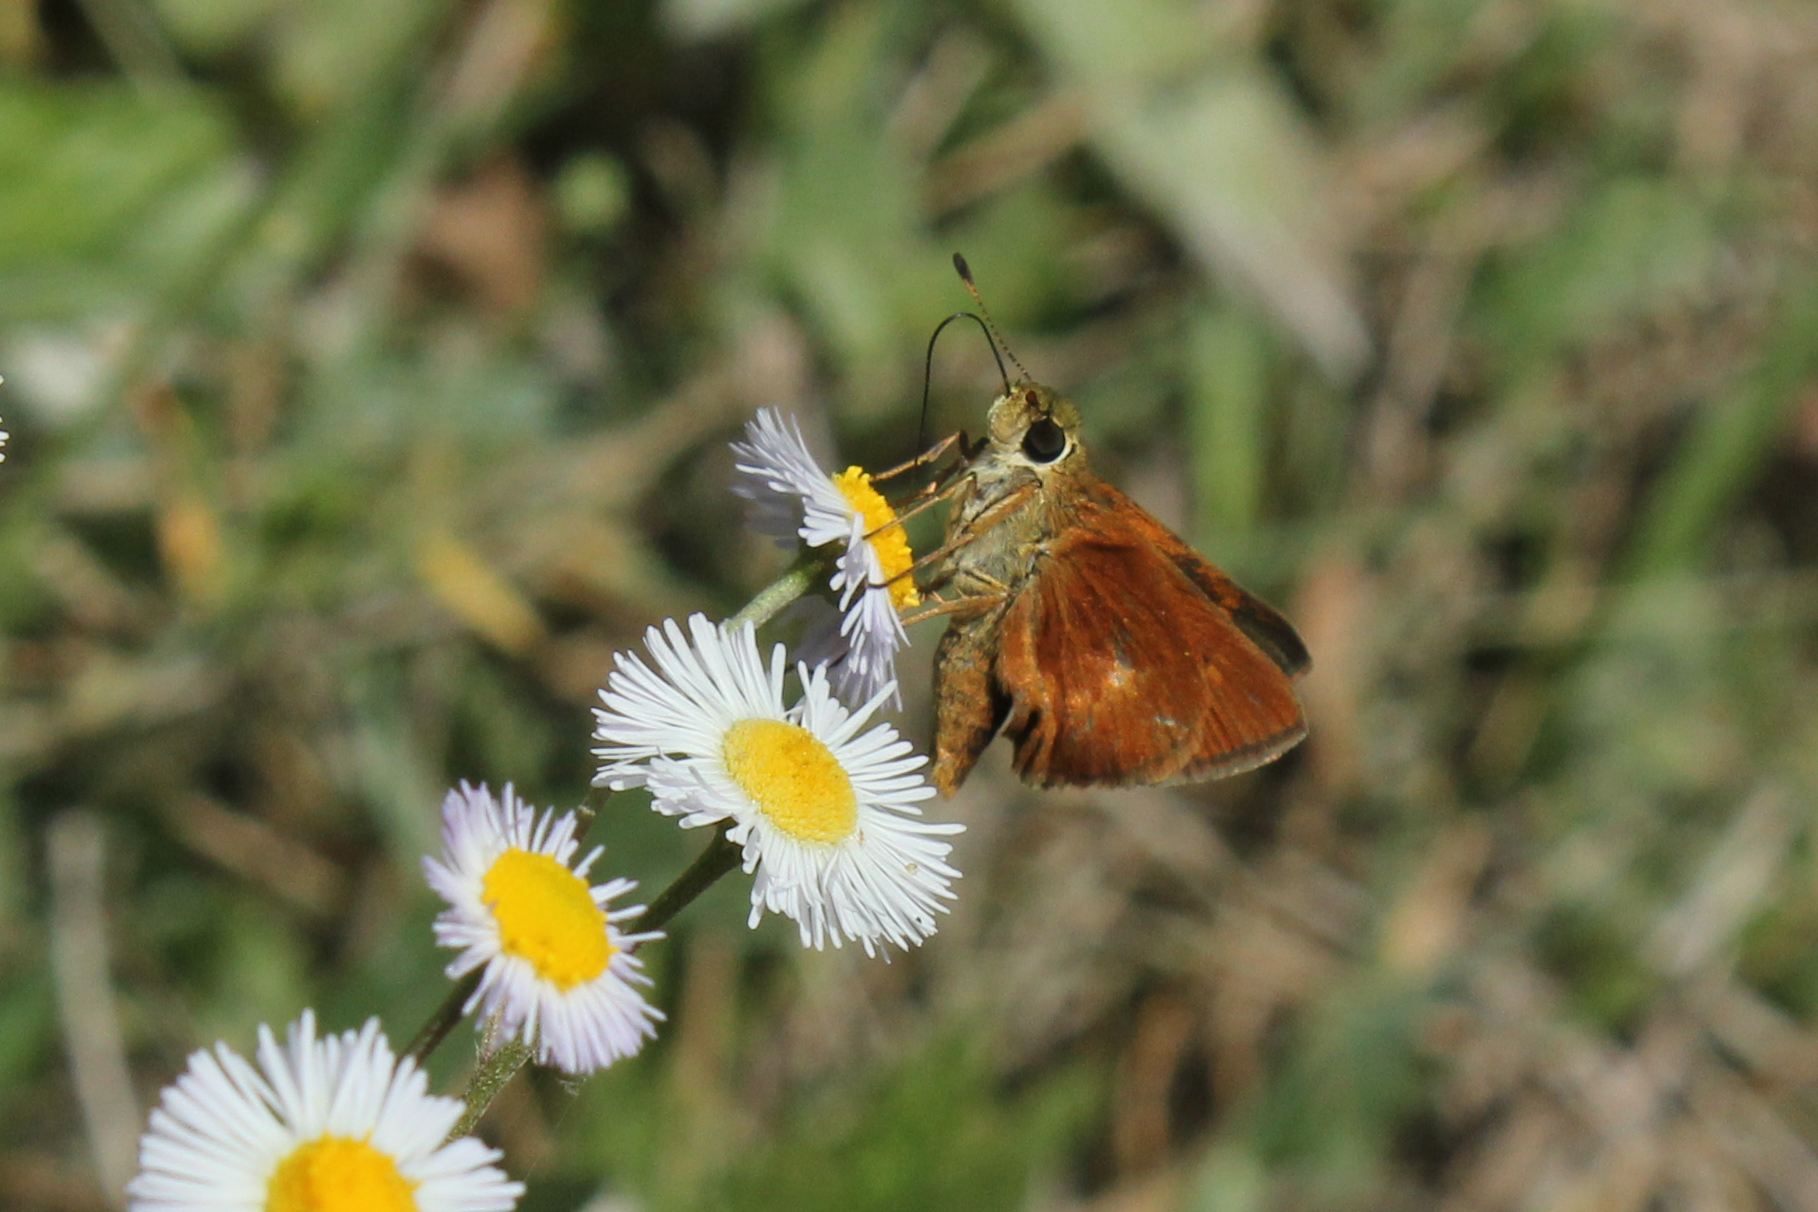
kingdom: Animalia
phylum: Arthropoda
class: Insecta
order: Lepidoptera
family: Hesperiidae
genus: Polites
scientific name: Polites otho
